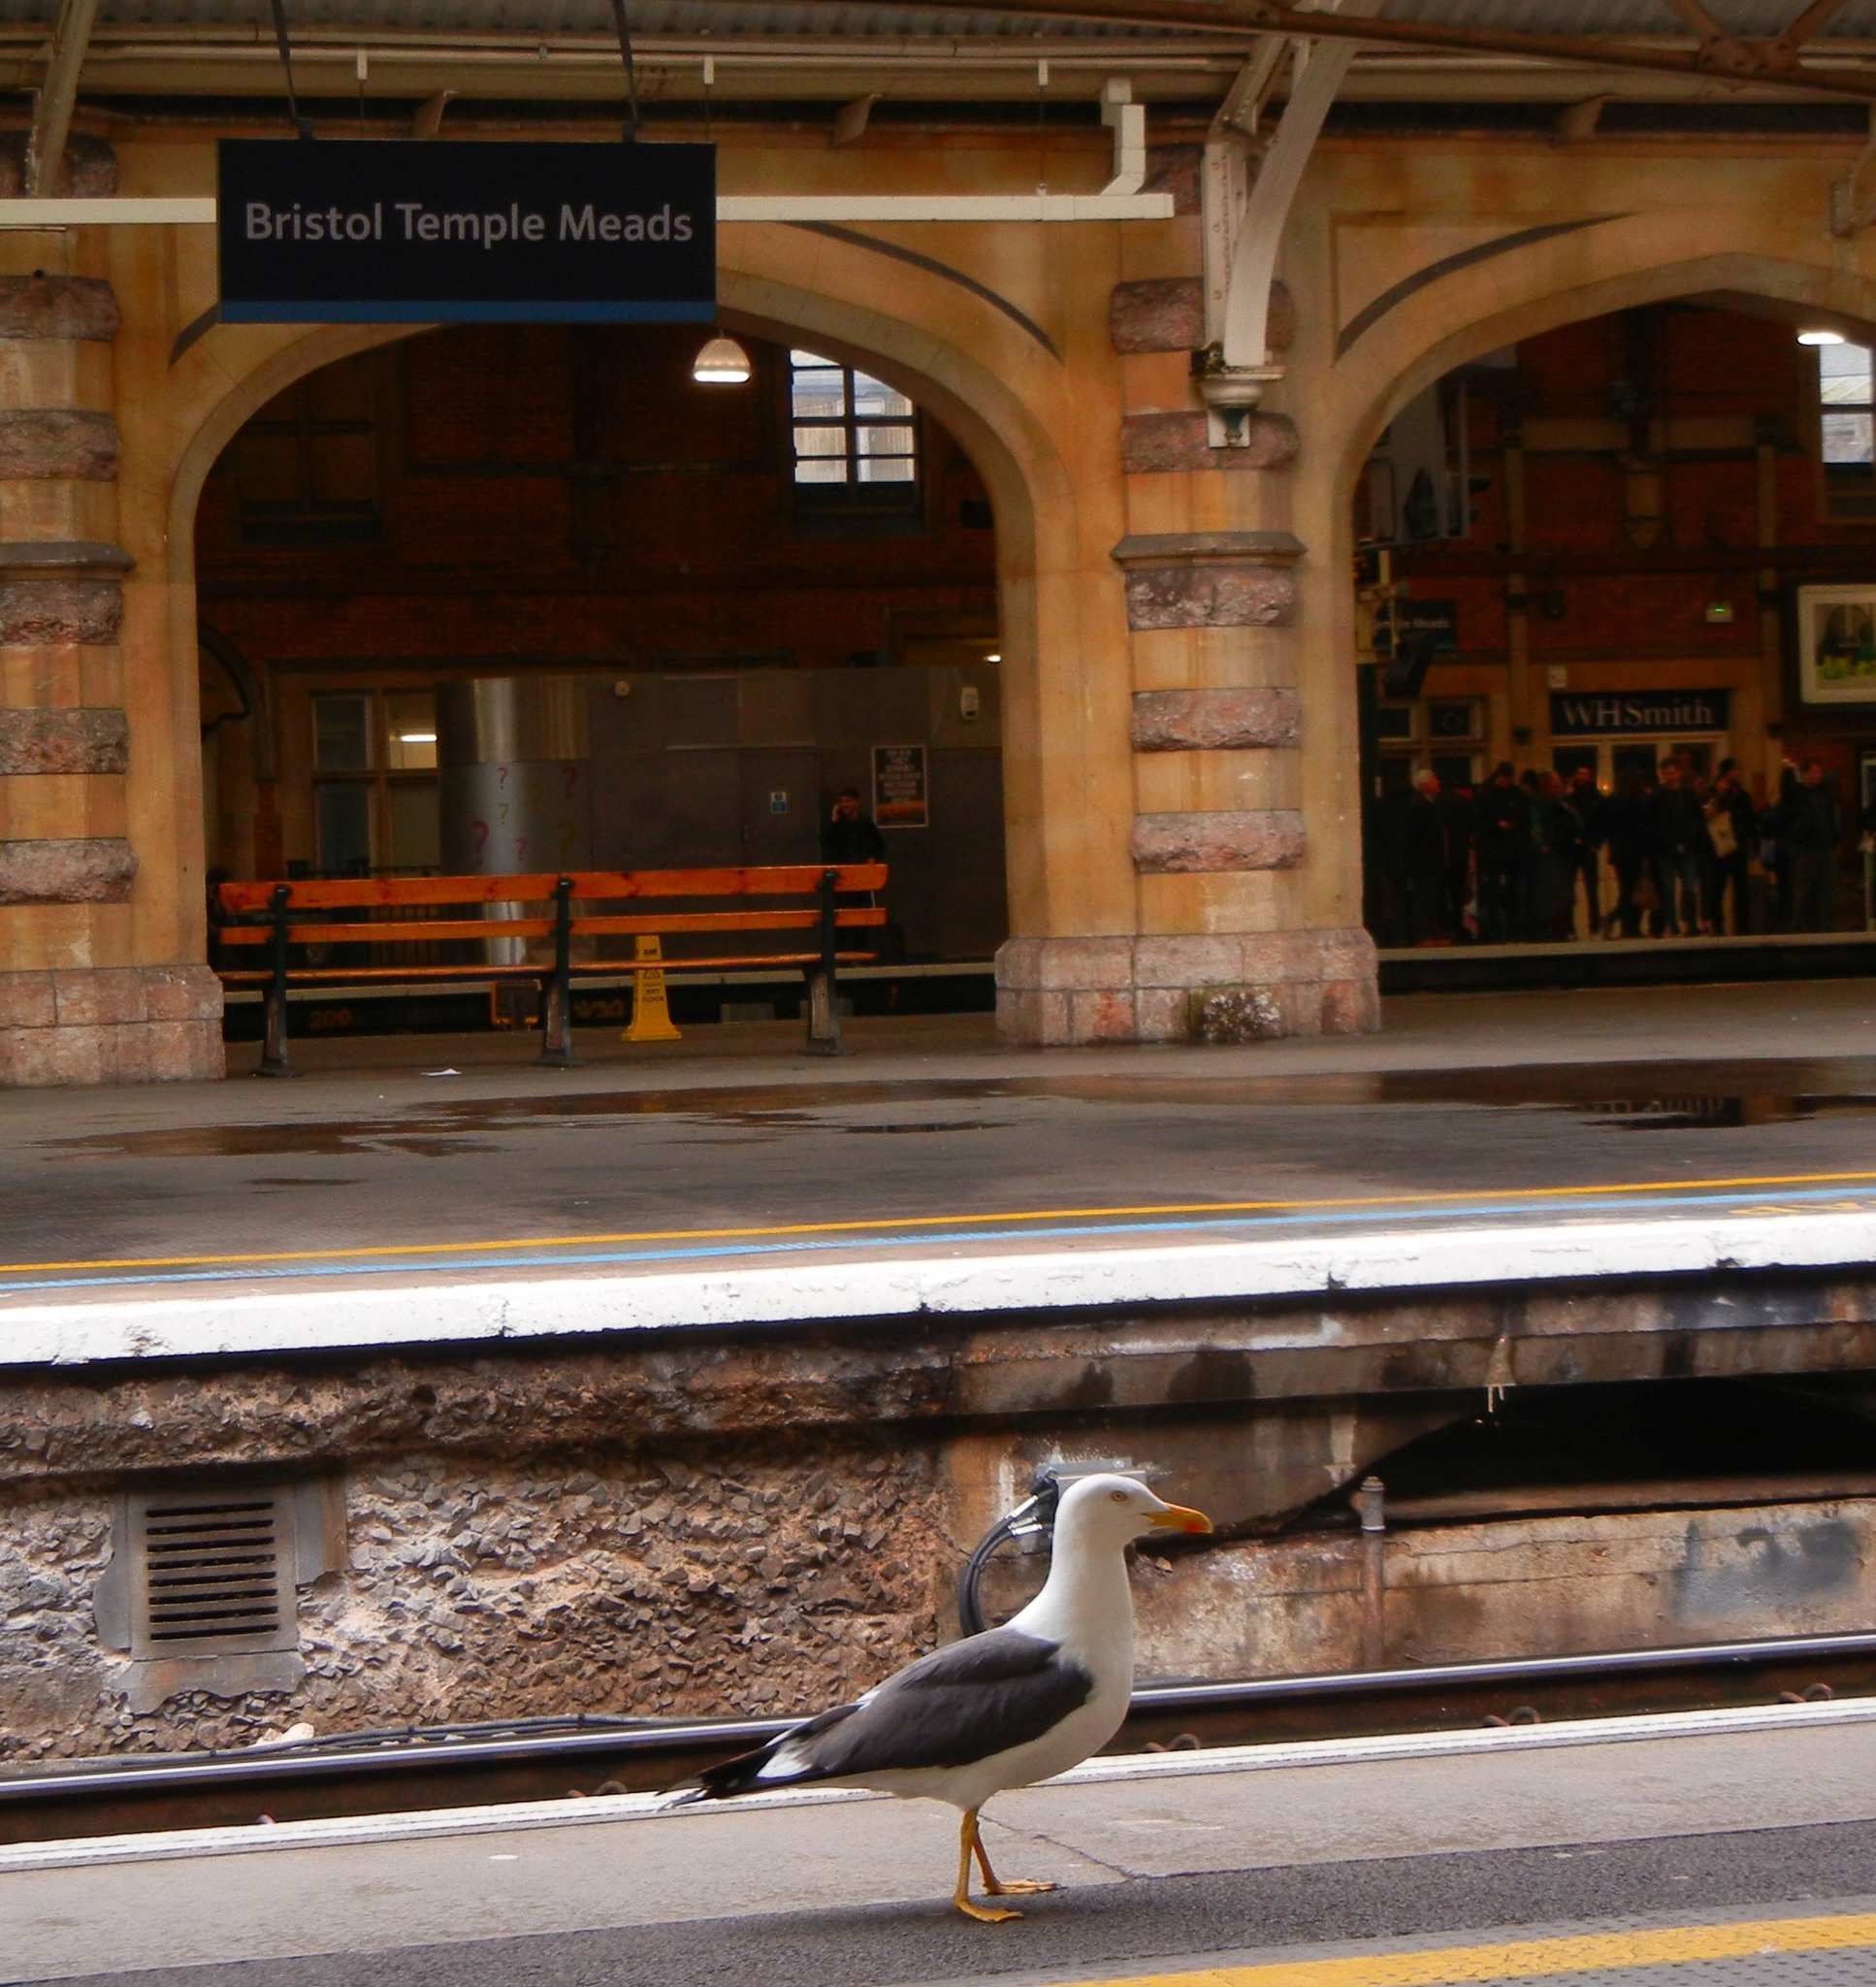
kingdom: Animalia
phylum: Chordata
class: Aves
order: Charadriiformes
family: Laridae
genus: Larus
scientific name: Larus fuscus
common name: Lesser black-backed gull
